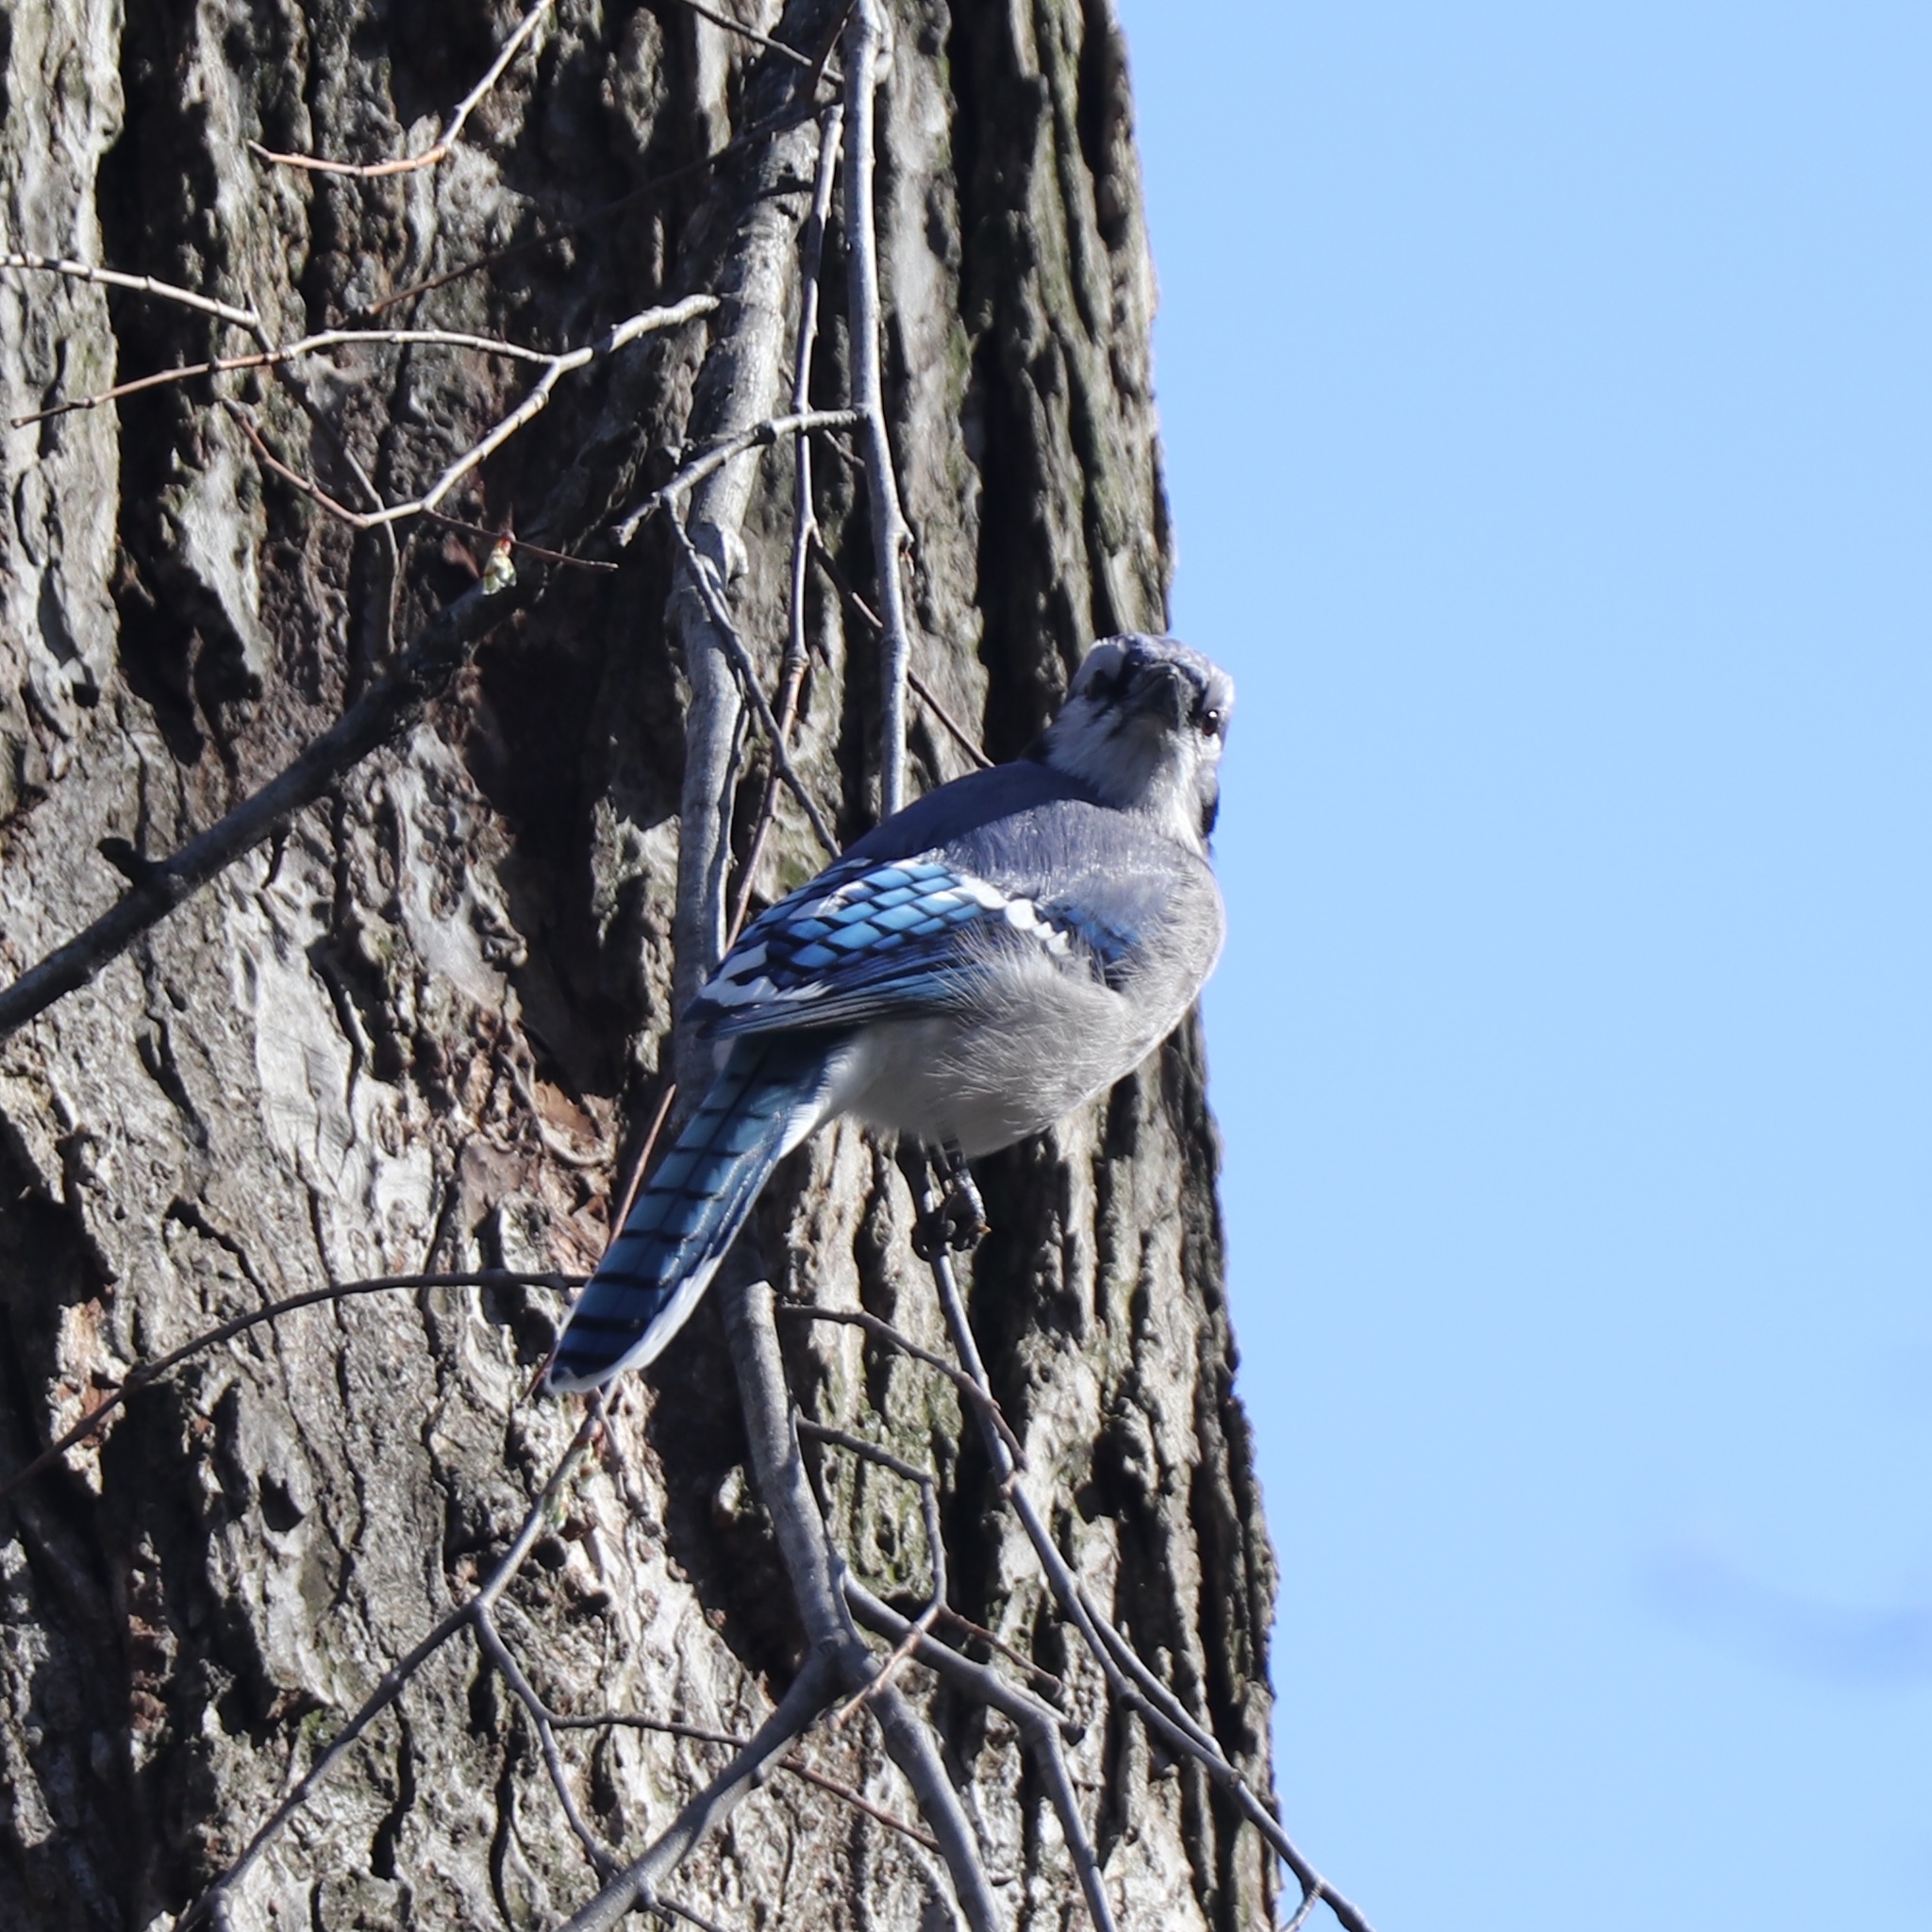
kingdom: Animalia
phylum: Chordata
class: Aves
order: Passeriformes
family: Corvidae
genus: Cyanocitta
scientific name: Cyanocitta cristata
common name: Blue jay
